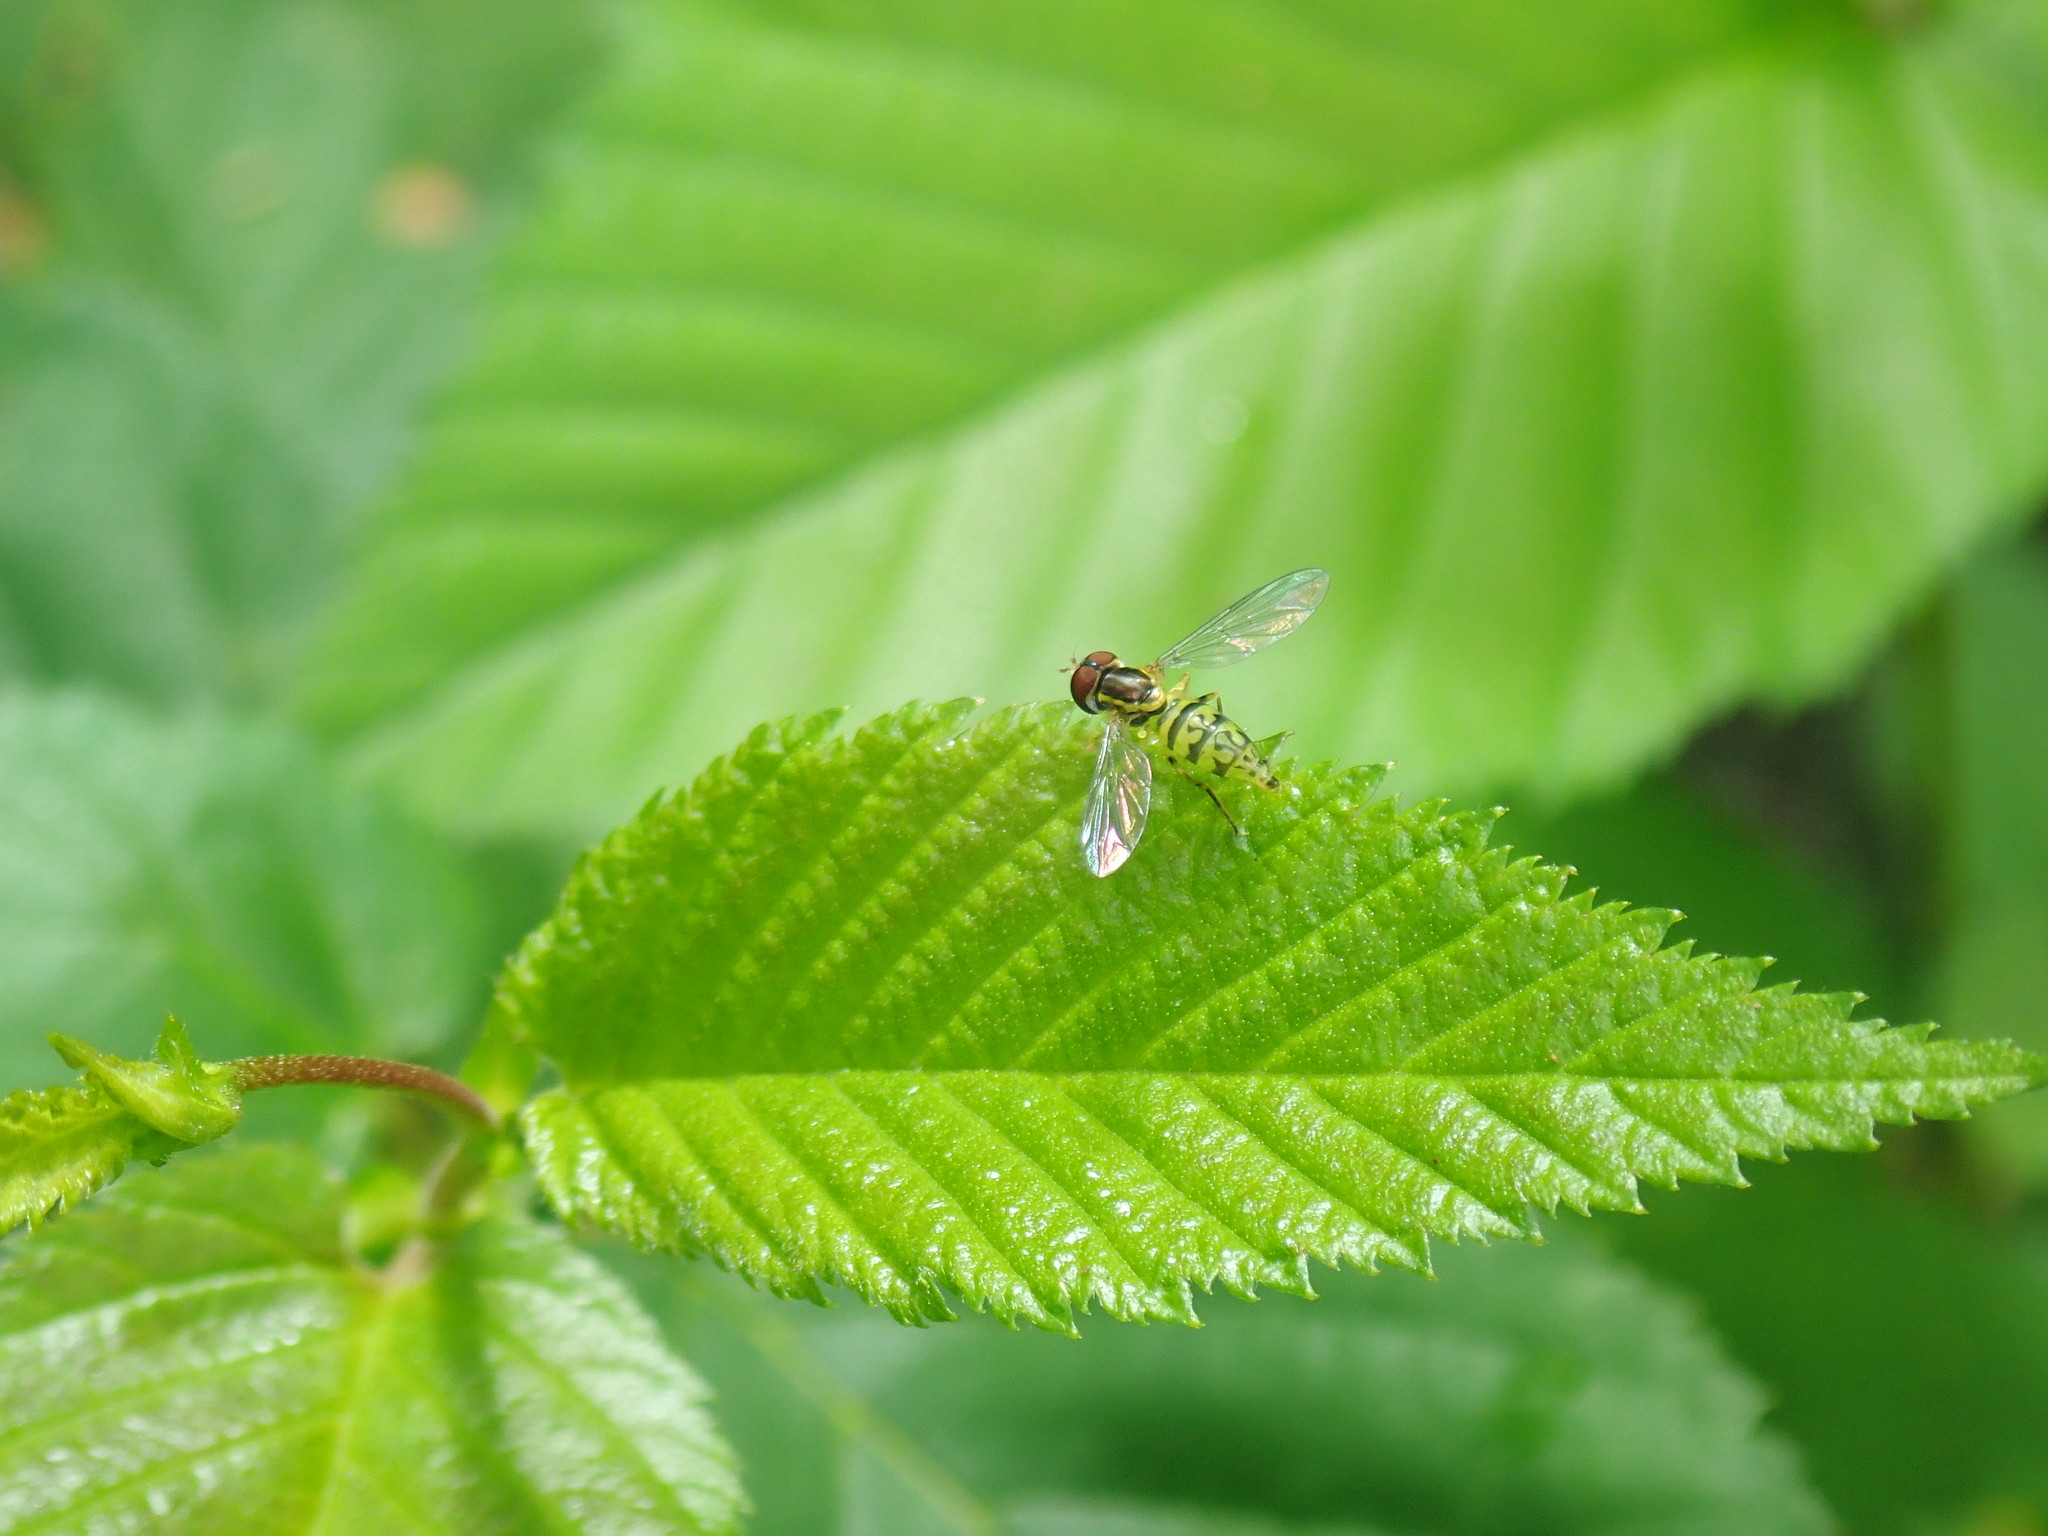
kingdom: Animalia
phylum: Arthropoda
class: Insecta
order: Diptera
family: Syrphidae
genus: Toxomerus
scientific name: Toxomerus geminatus
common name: Eastern calligrapher
